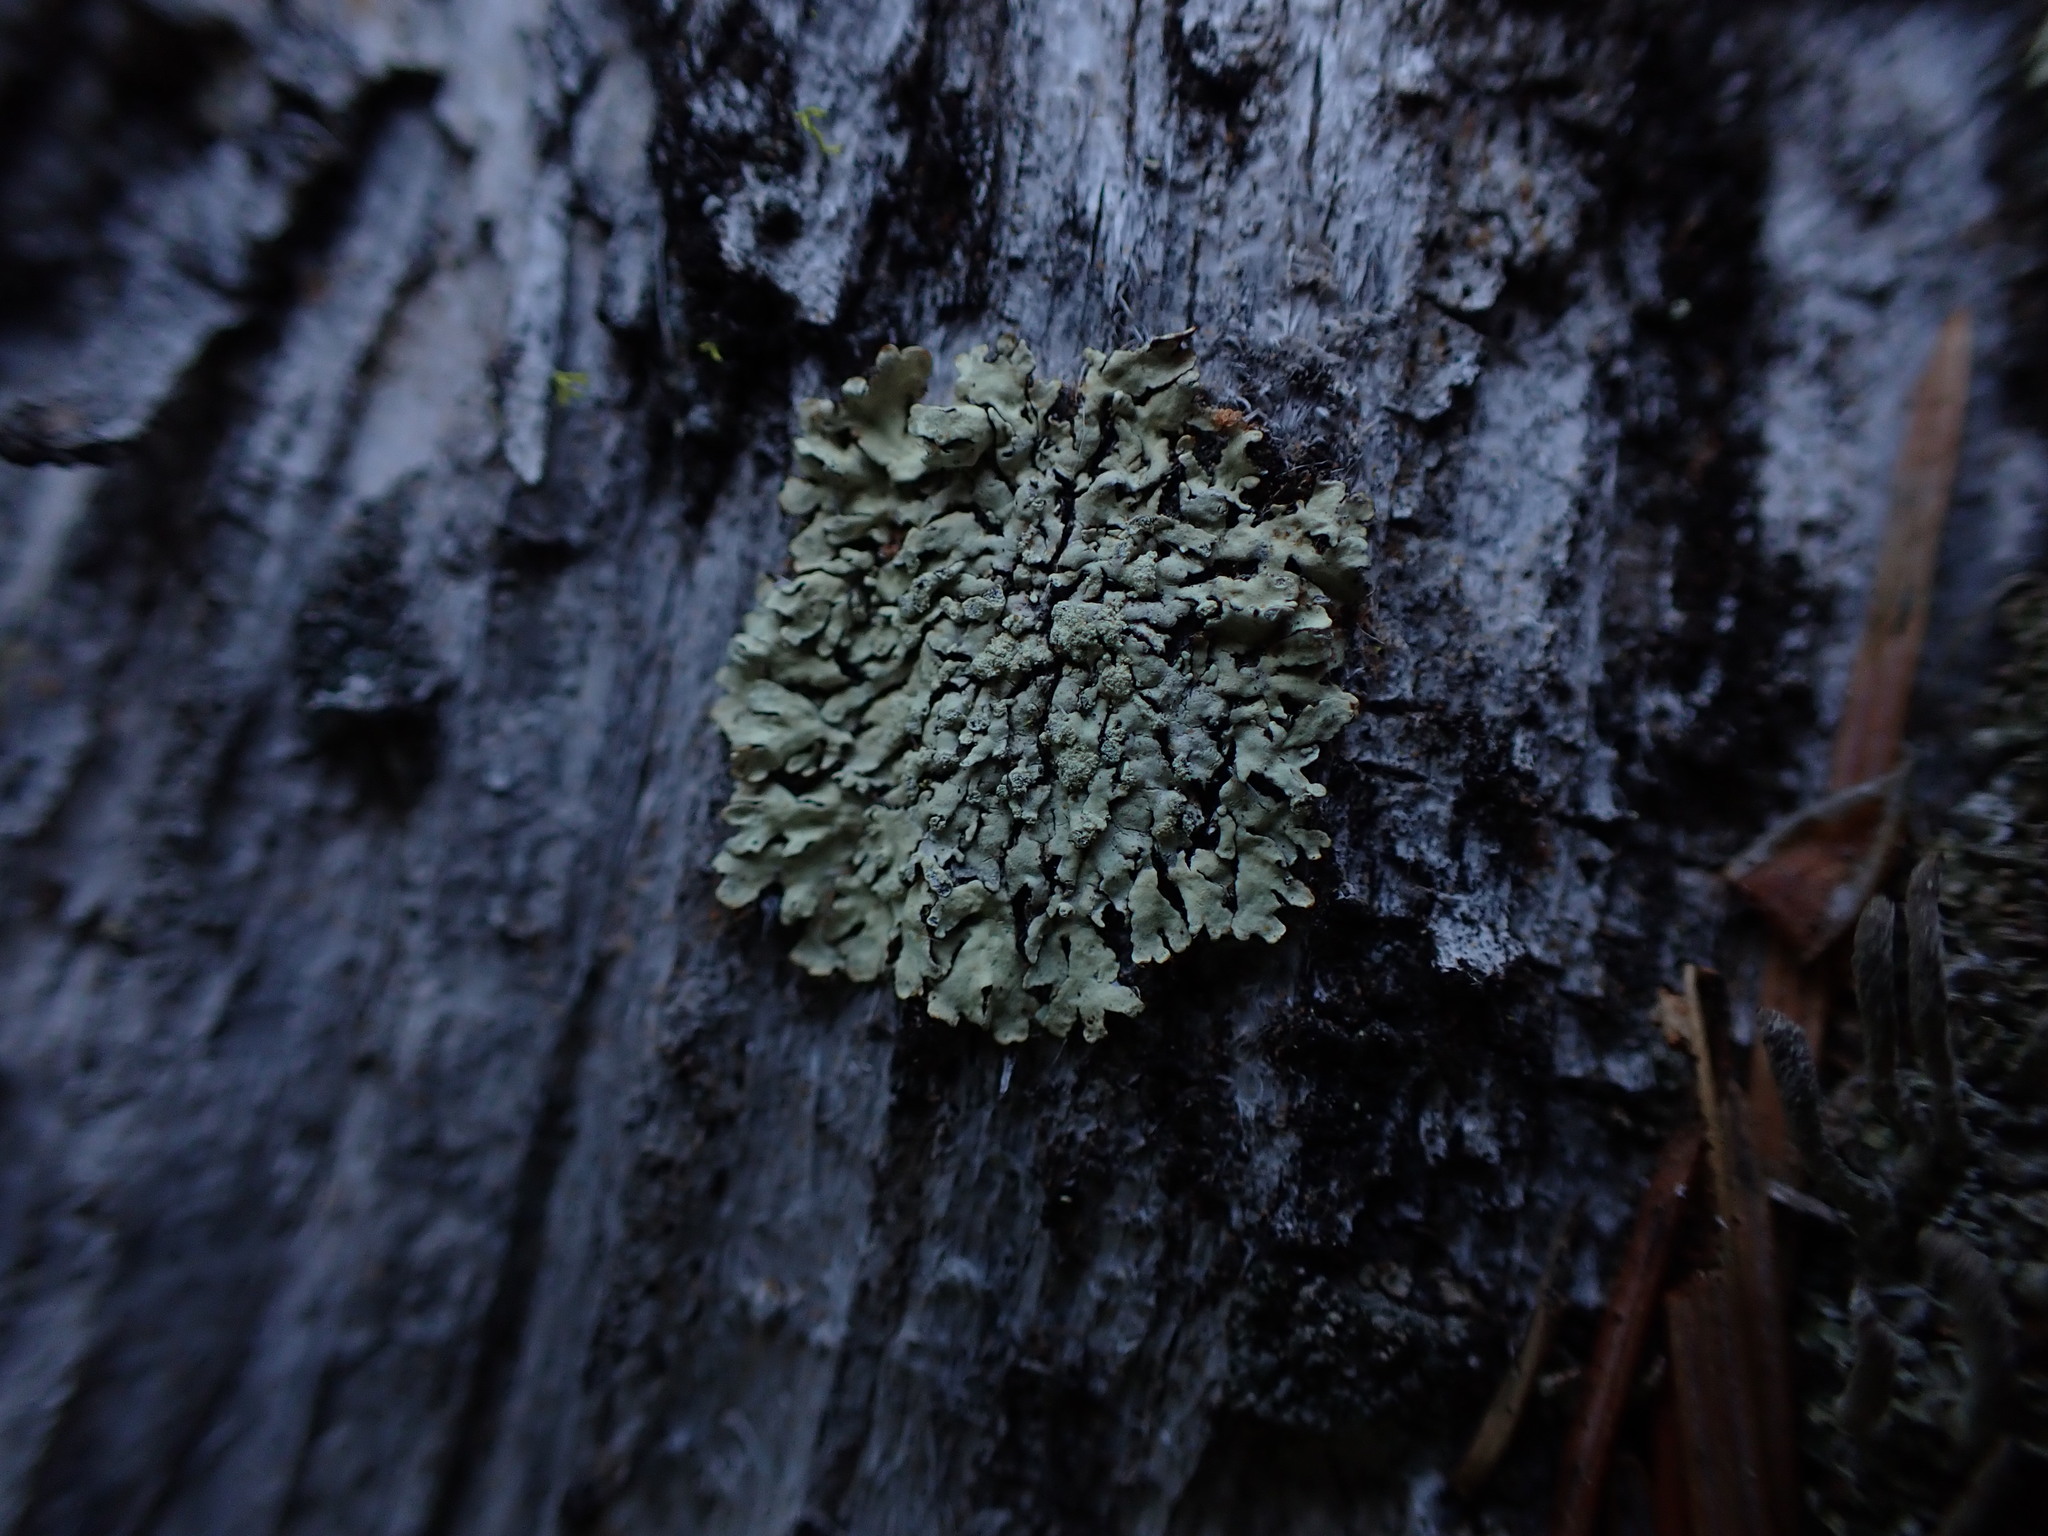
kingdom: Fungi
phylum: Ascomycota
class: Lecanoromycetes
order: Lecanorales
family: Parmeliaceae
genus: Parmeliopsis
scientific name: Parmeliopsis ambigua
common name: Green starburst lichen
